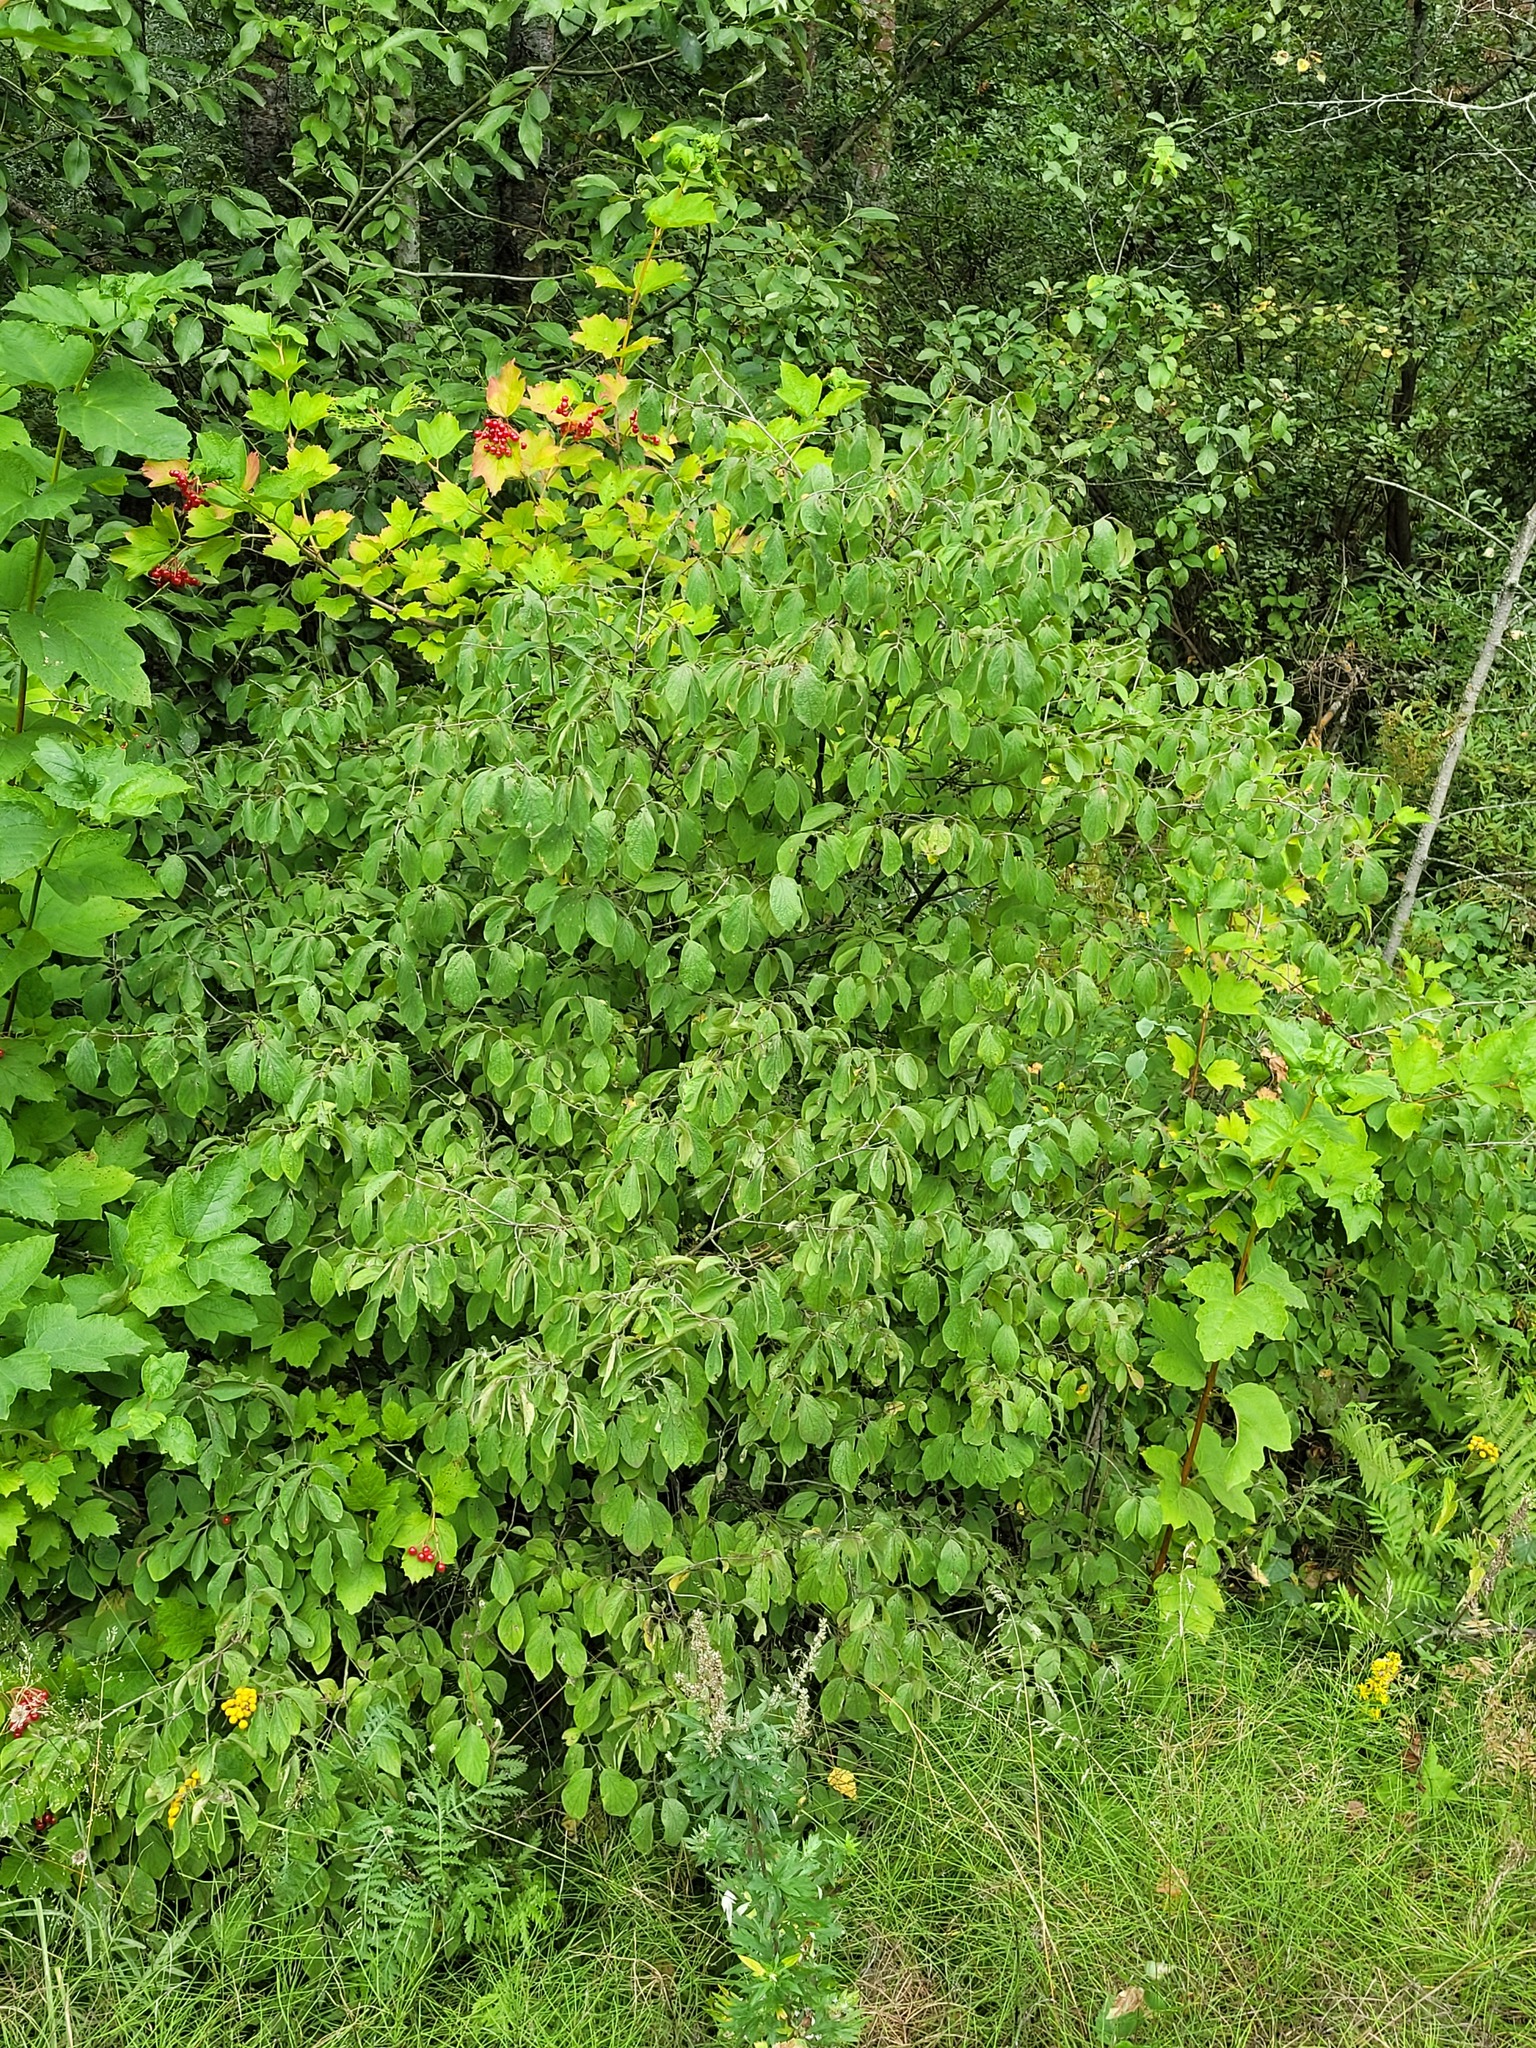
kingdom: Plantae
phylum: Tracheophyta
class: Magnoliopsida
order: Dipsacales
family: Caprifoliaceae
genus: Lonicera
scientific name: Lonicera xylosteum
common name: Fly honeysuckle
